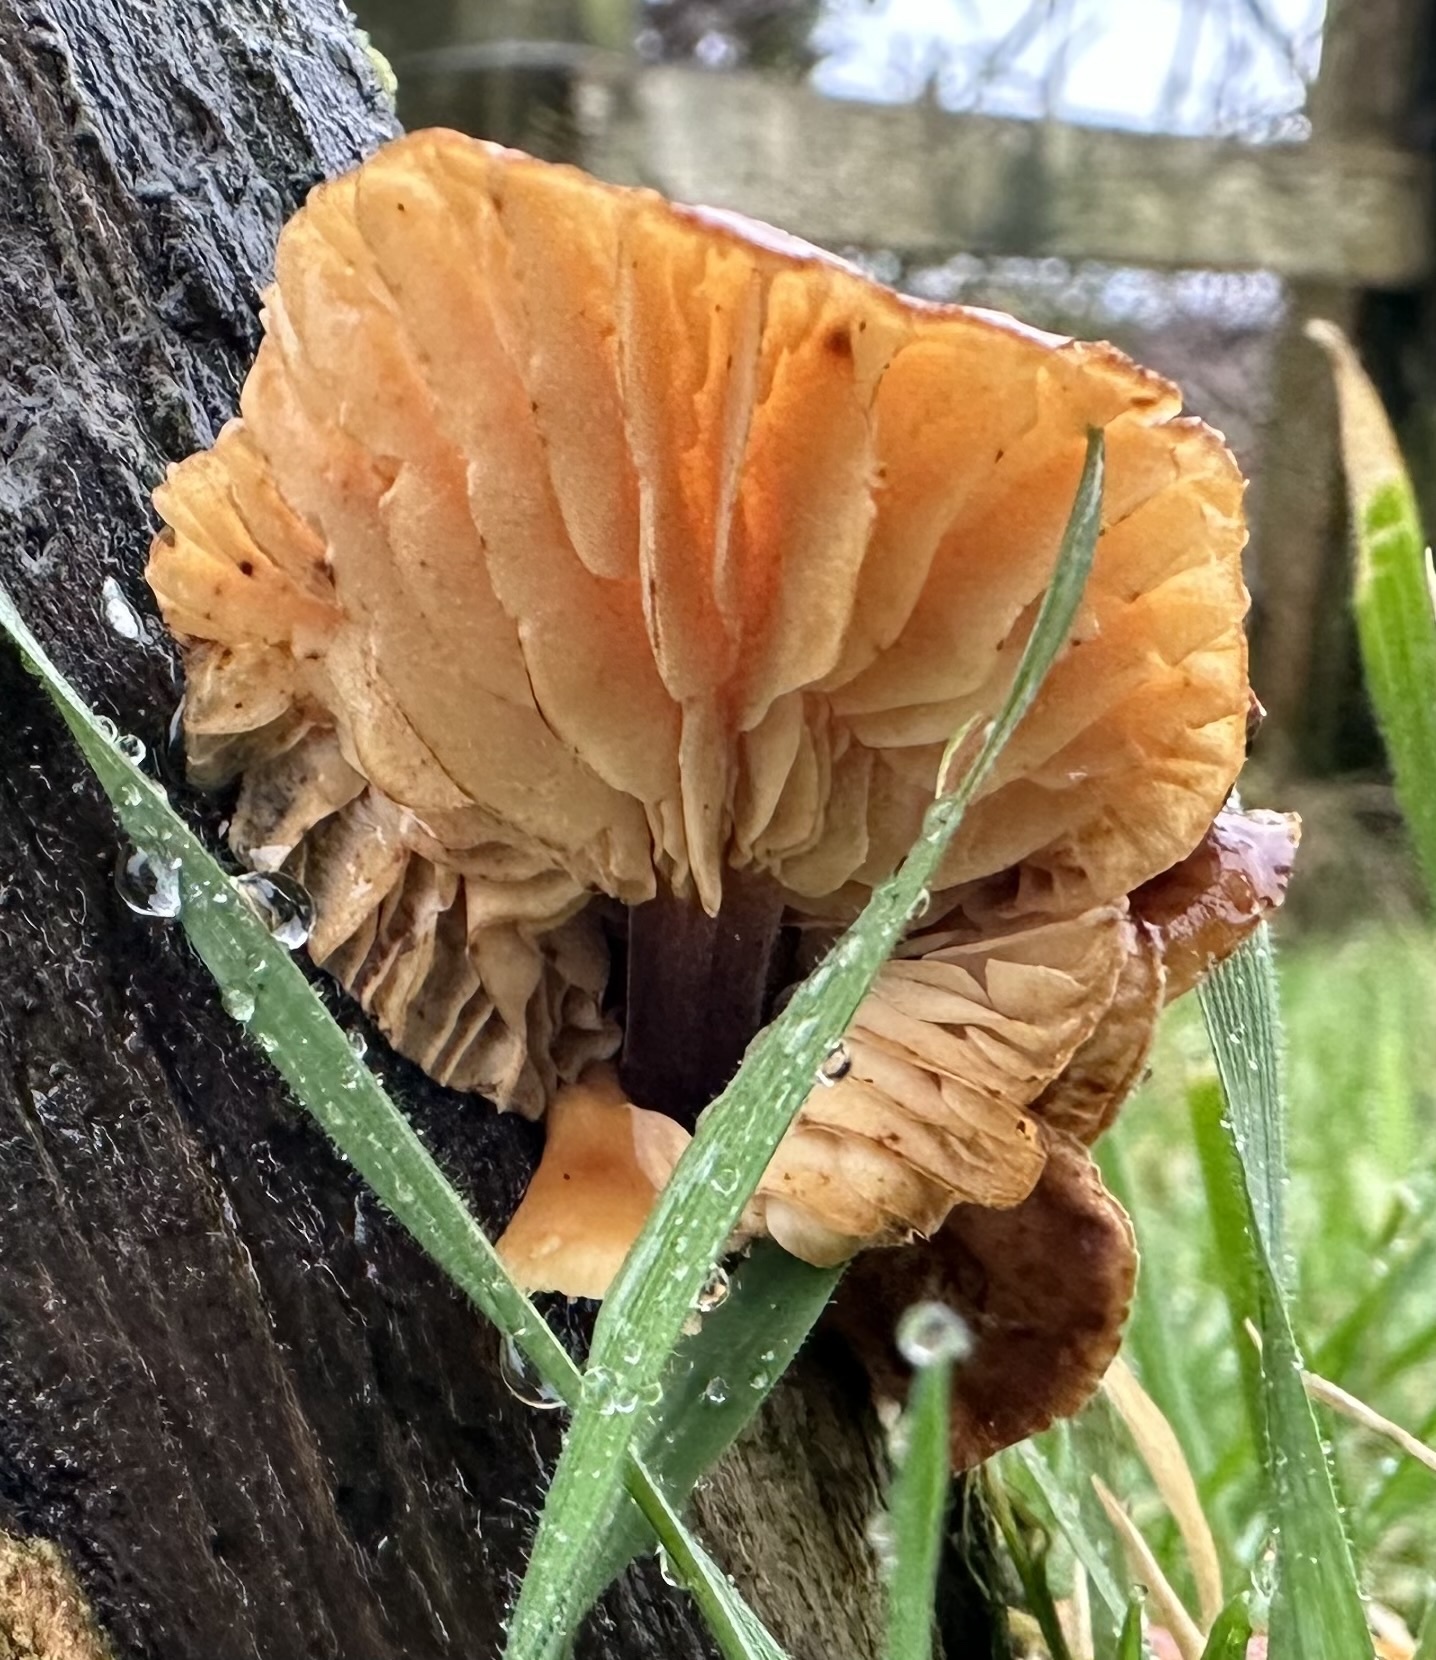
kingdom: Fungi
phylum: Basidiomycota
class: Agaricomycetes
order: Agaricales
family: Physalacriaceae
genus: Flammulina
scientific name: Flammulina
